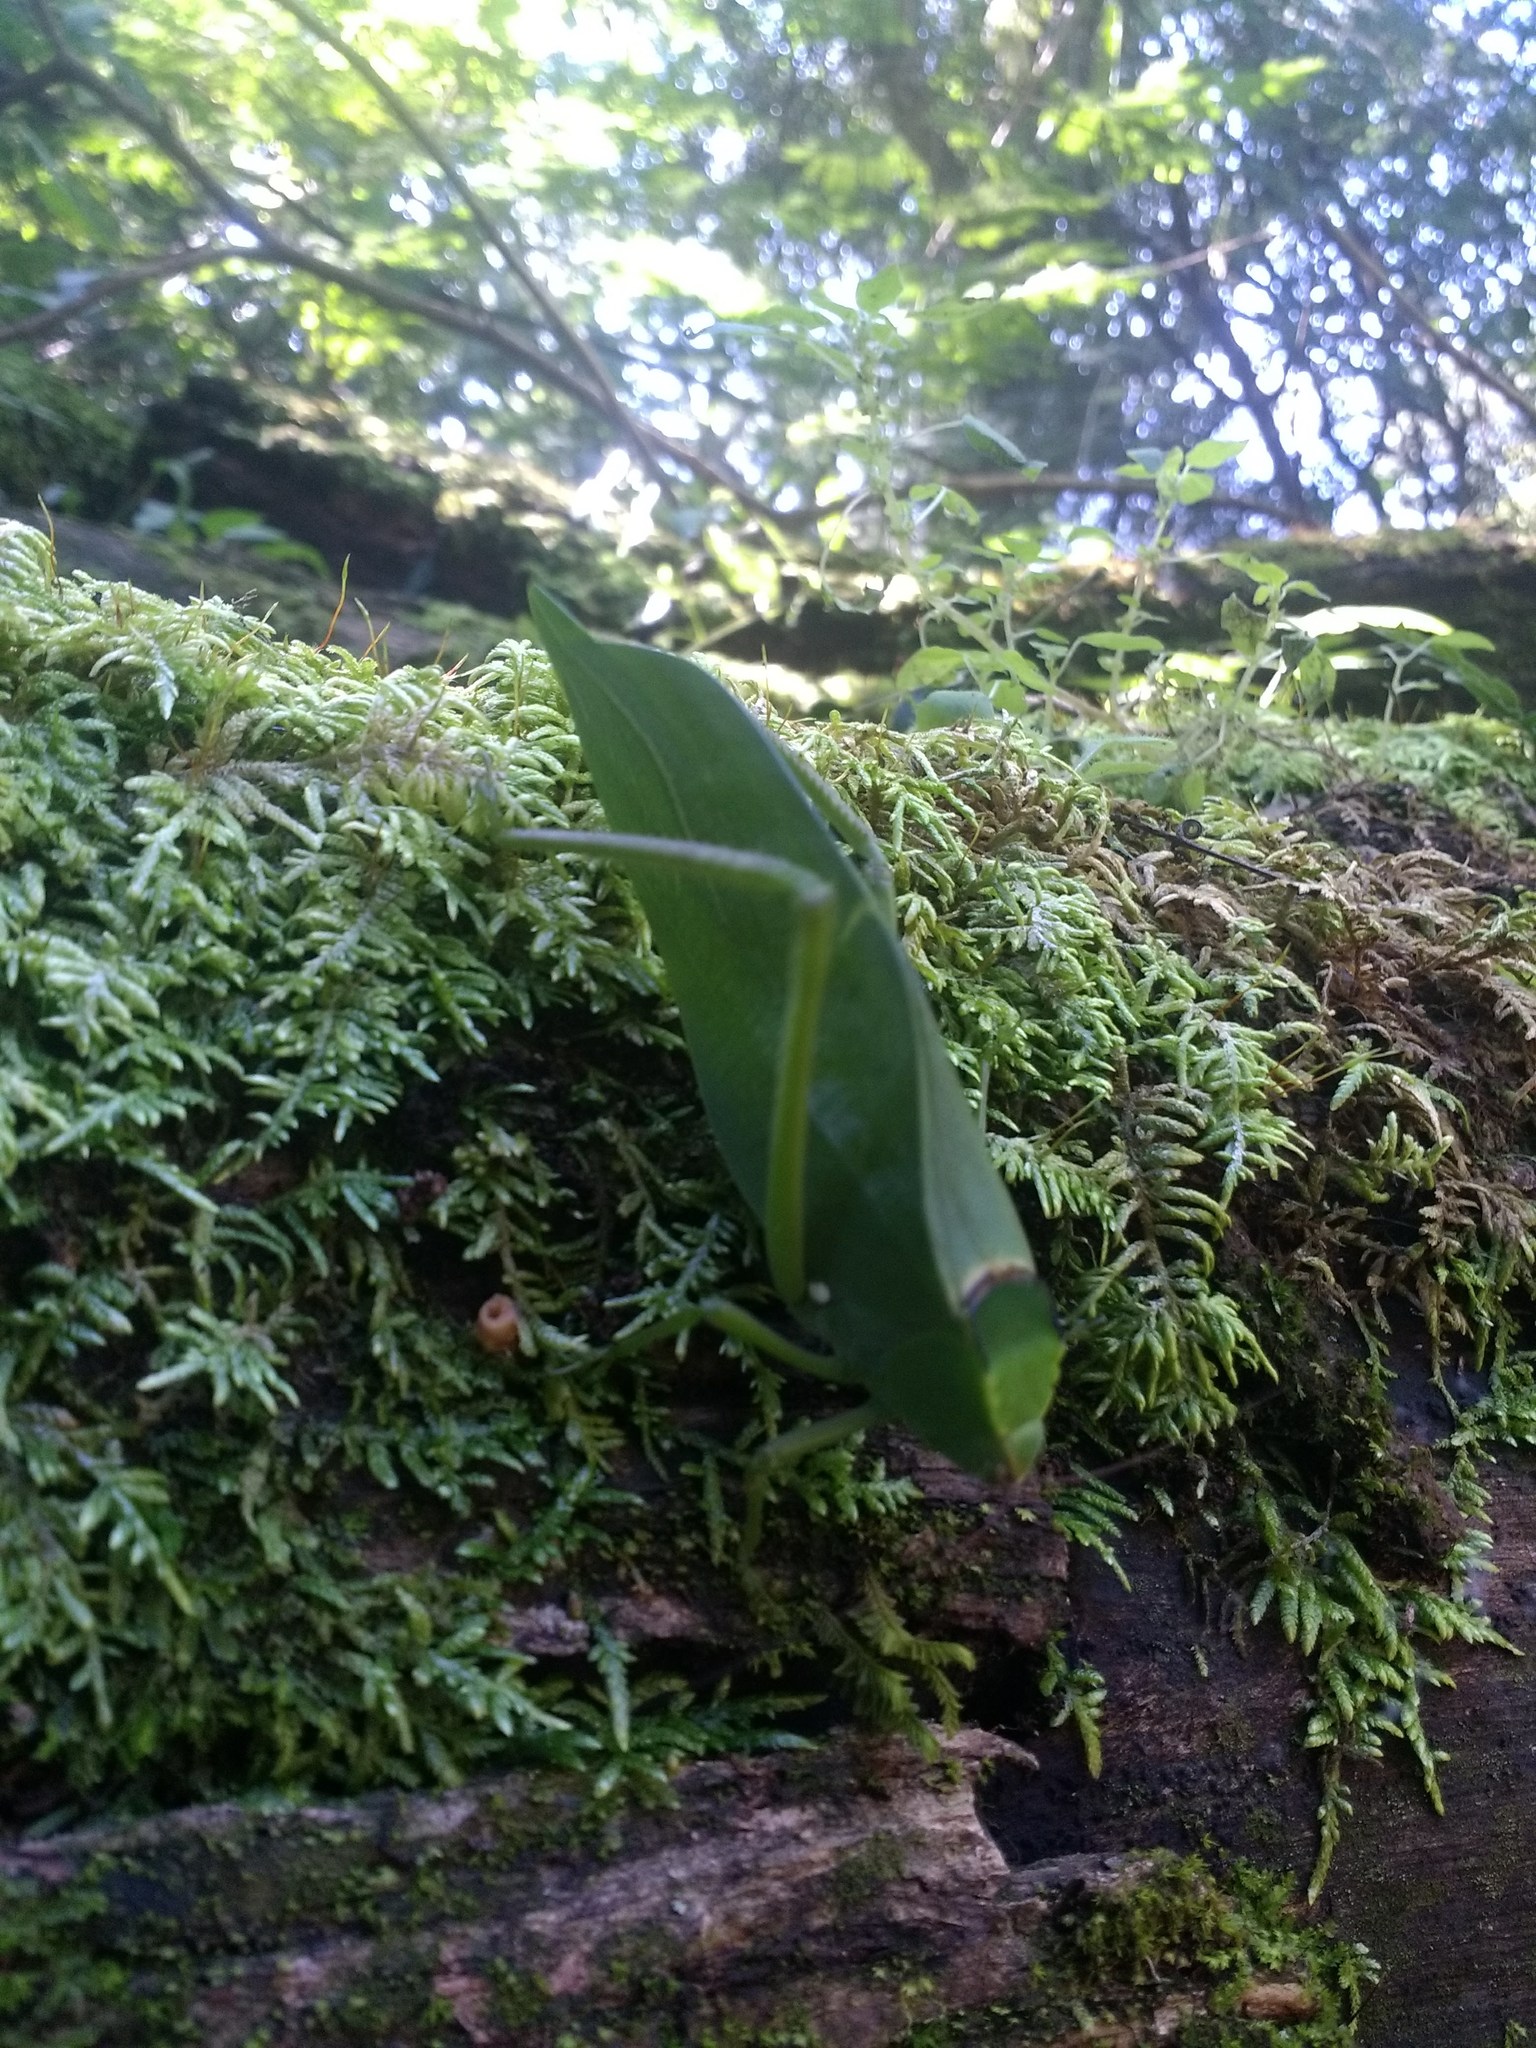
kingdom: Animalia
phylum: Arthropoda
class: Insecta
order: Orthoptera
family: Tettigoniidae
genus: Stilpnochlora
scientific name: Stilpnochlora incisa
